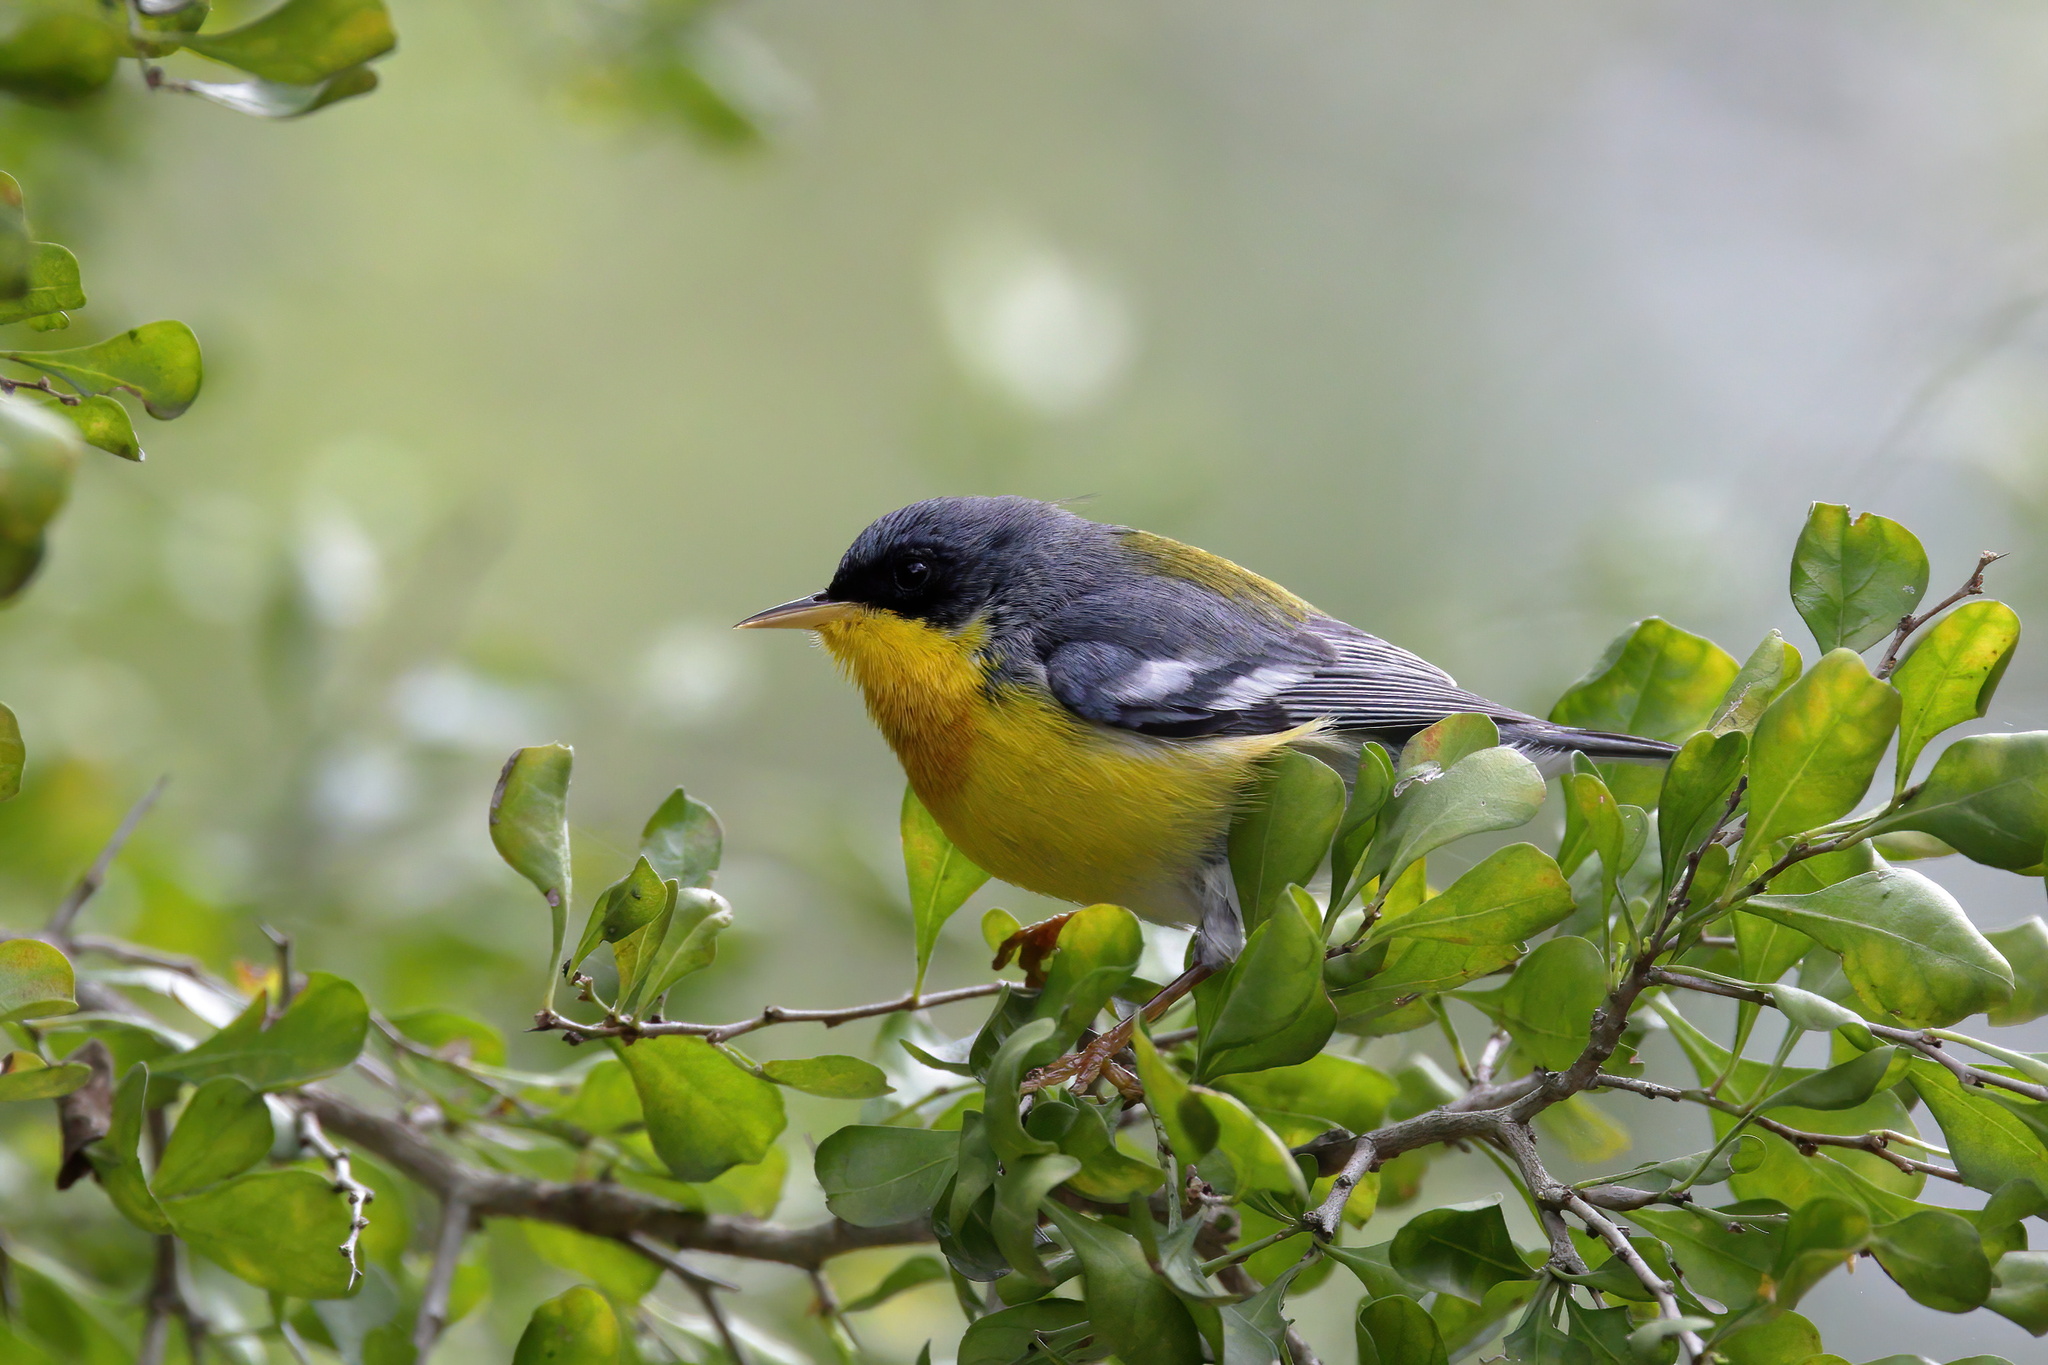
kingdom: Animalia
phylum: Chordata
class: Aves
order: Passeriformes
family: Parulidae
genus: Setophaga
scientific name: Setophaga pitiayumi
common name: Tropical parula
